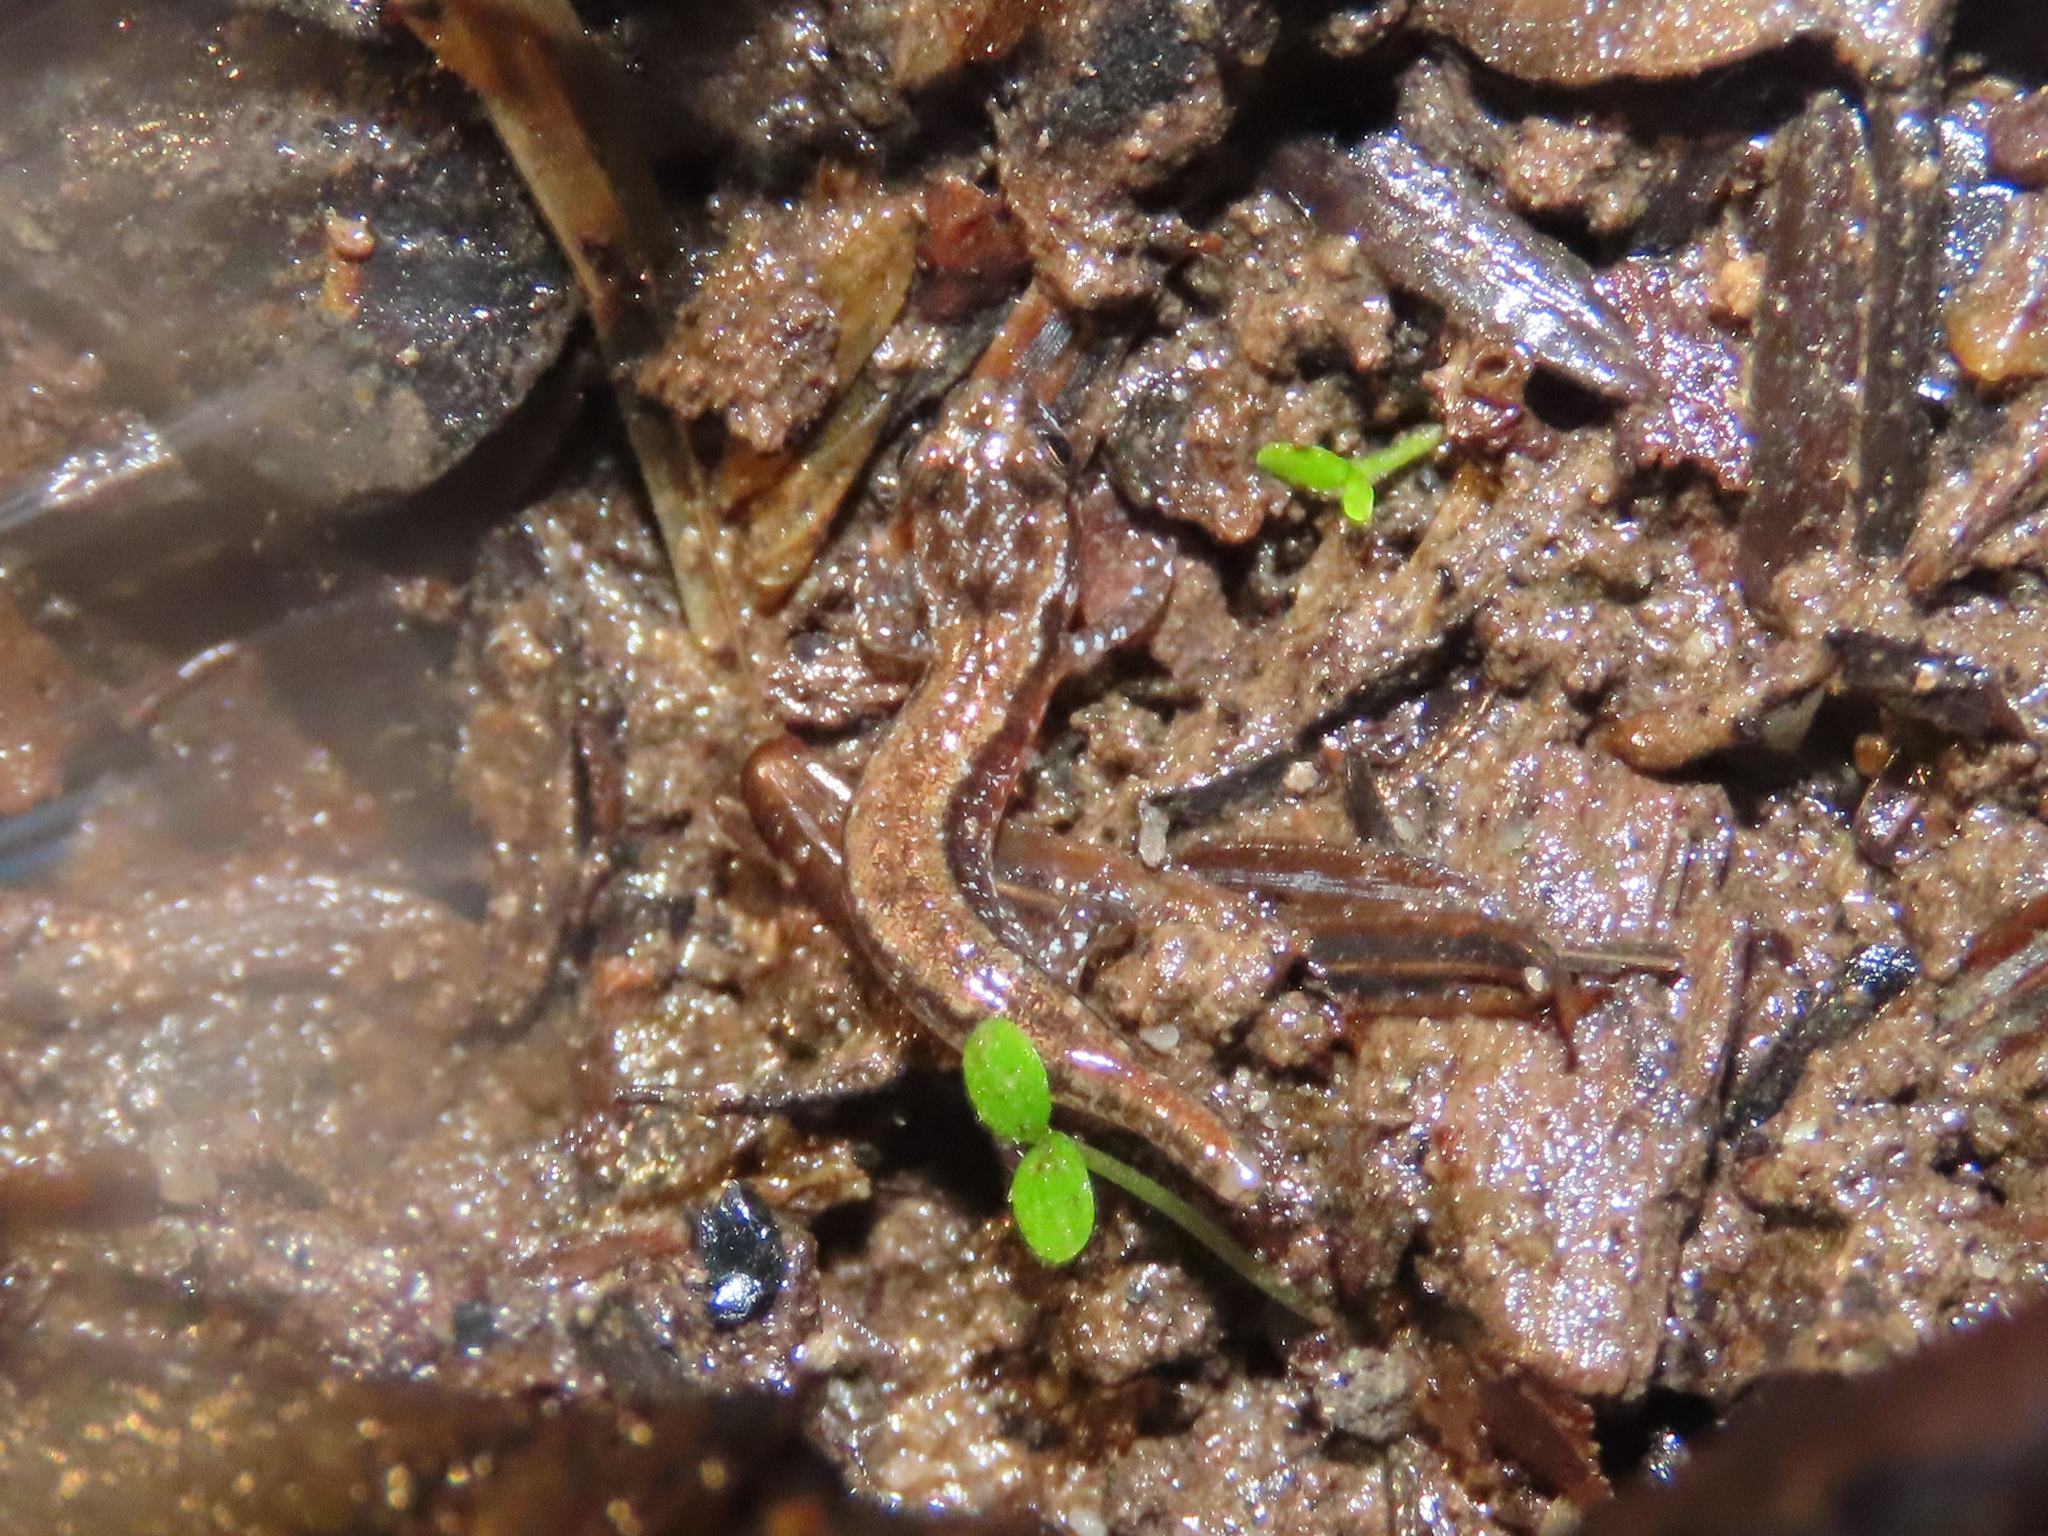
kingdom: Animalia
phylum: Chordata
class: Amphibia
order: Caudata
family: Plethodontidae
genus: Desmognathus
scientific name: Desmognathus ochrophaeus
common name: Allegheny mountain dusky salamander
